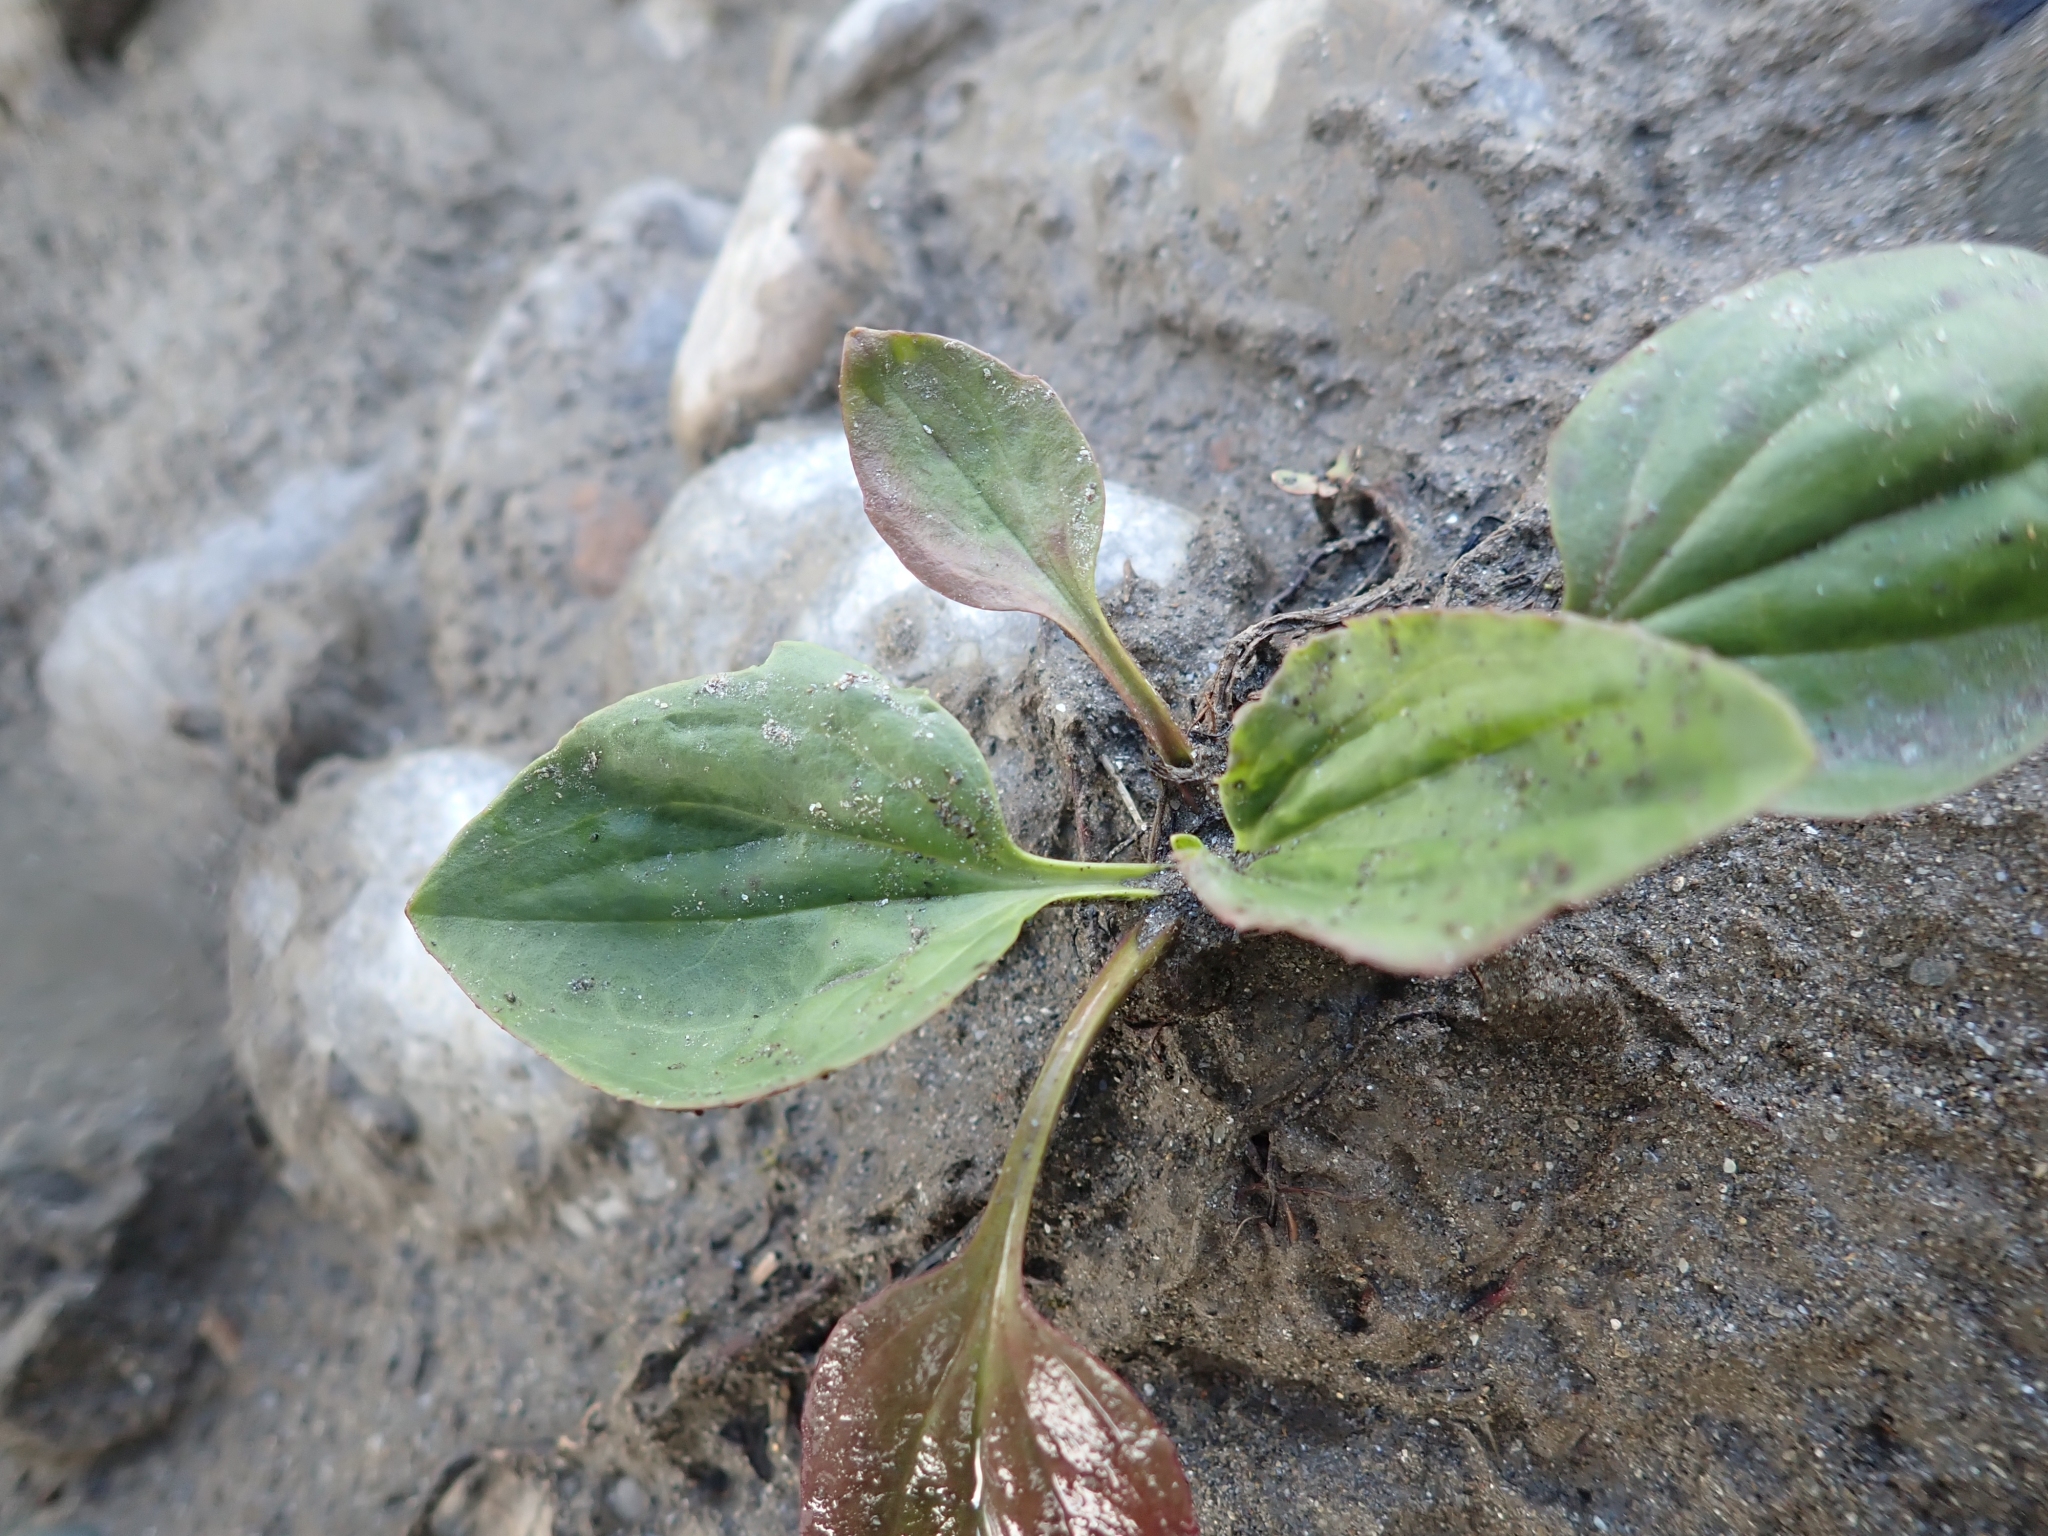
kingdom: Plantae
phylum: Tracheophyta
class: Magnoliopsida
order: Lamiales
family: Plantaginaceae
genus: Plantago
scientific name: Plantago major
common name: Common plantain
